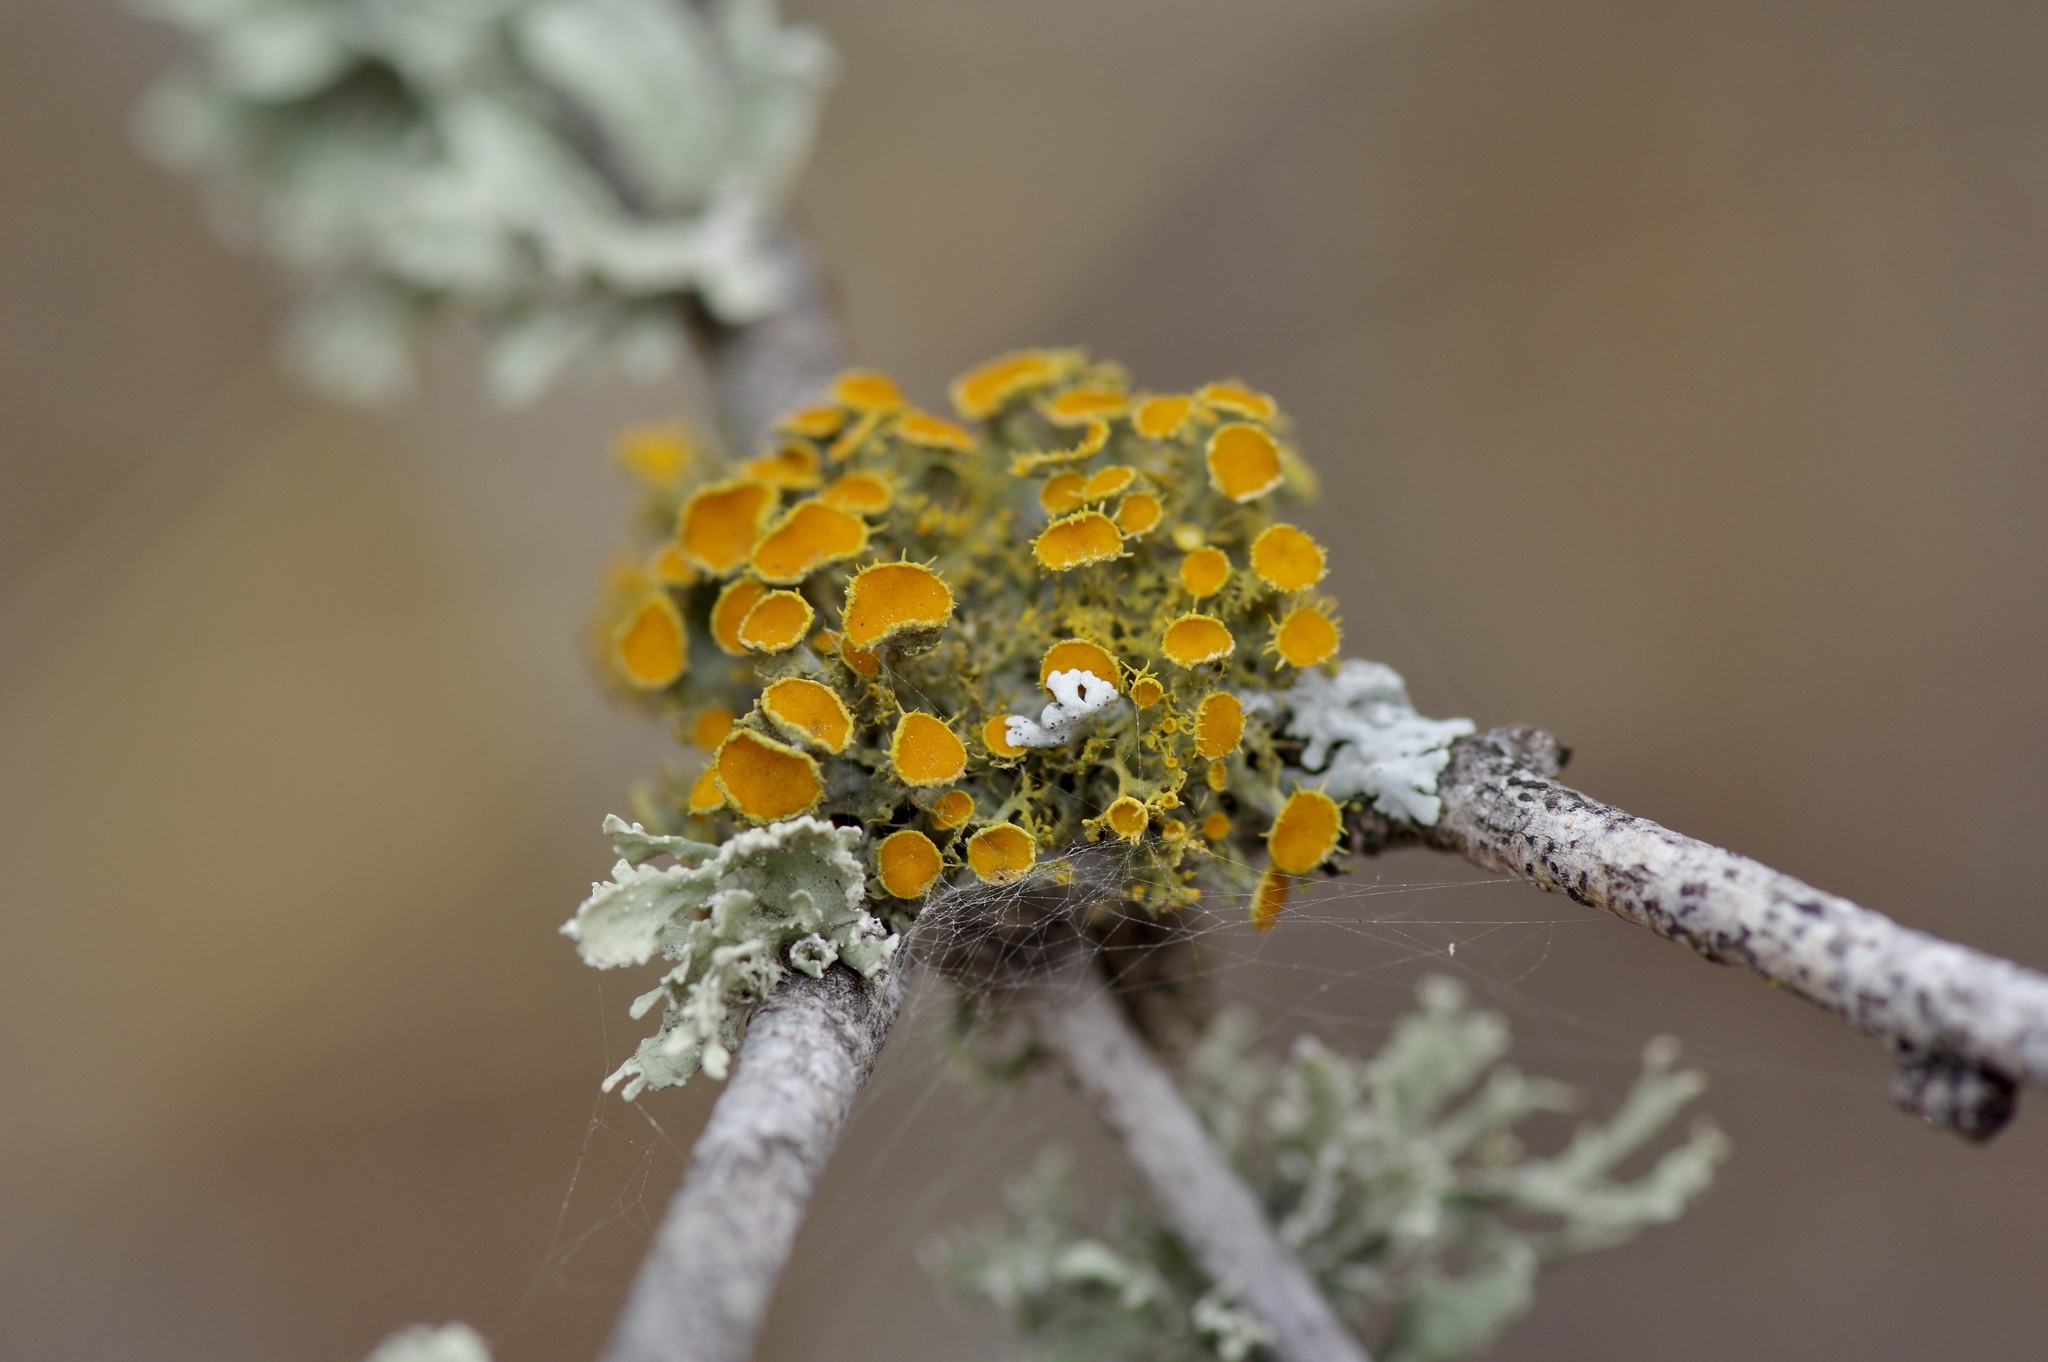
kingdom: Fungi
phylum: Ascomycota
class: Lecanoromycetes
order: Teloschistales
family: Teloschistaceae
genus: Niorma
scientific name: Niorma chrysophthalma
